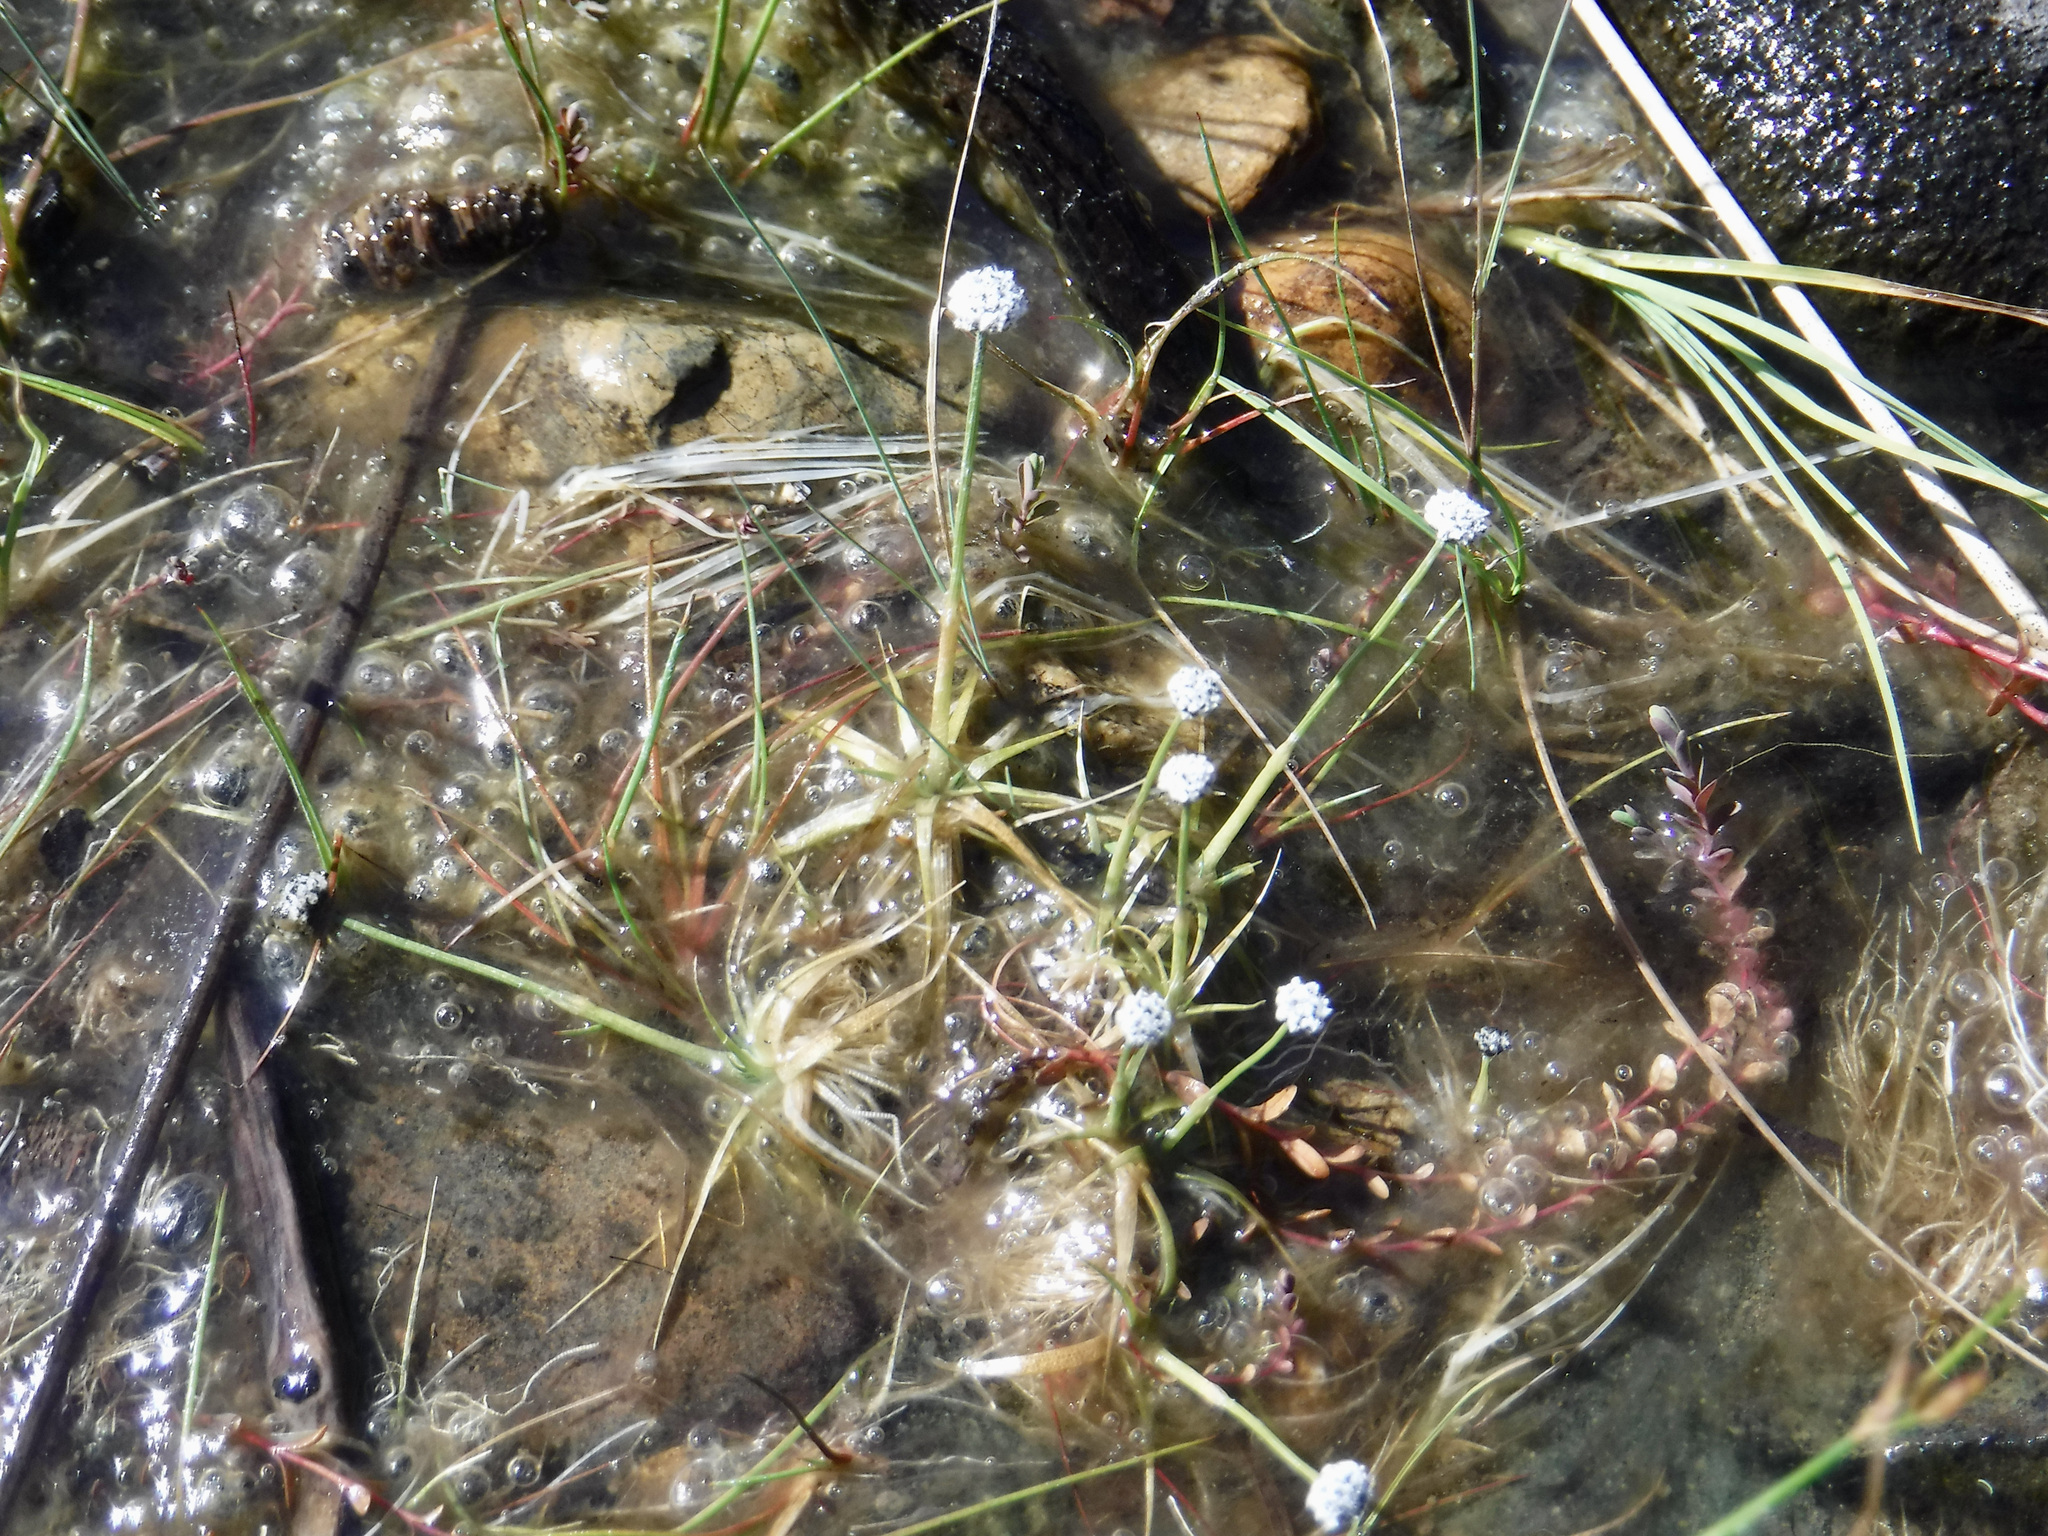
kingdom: Plantae
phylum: Tracheophyta
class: Liliopsida
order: Poales
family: Eriocaulaceae
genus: Eriocaulon
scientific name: Eriocaulon aquaticum
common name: Pipewort
